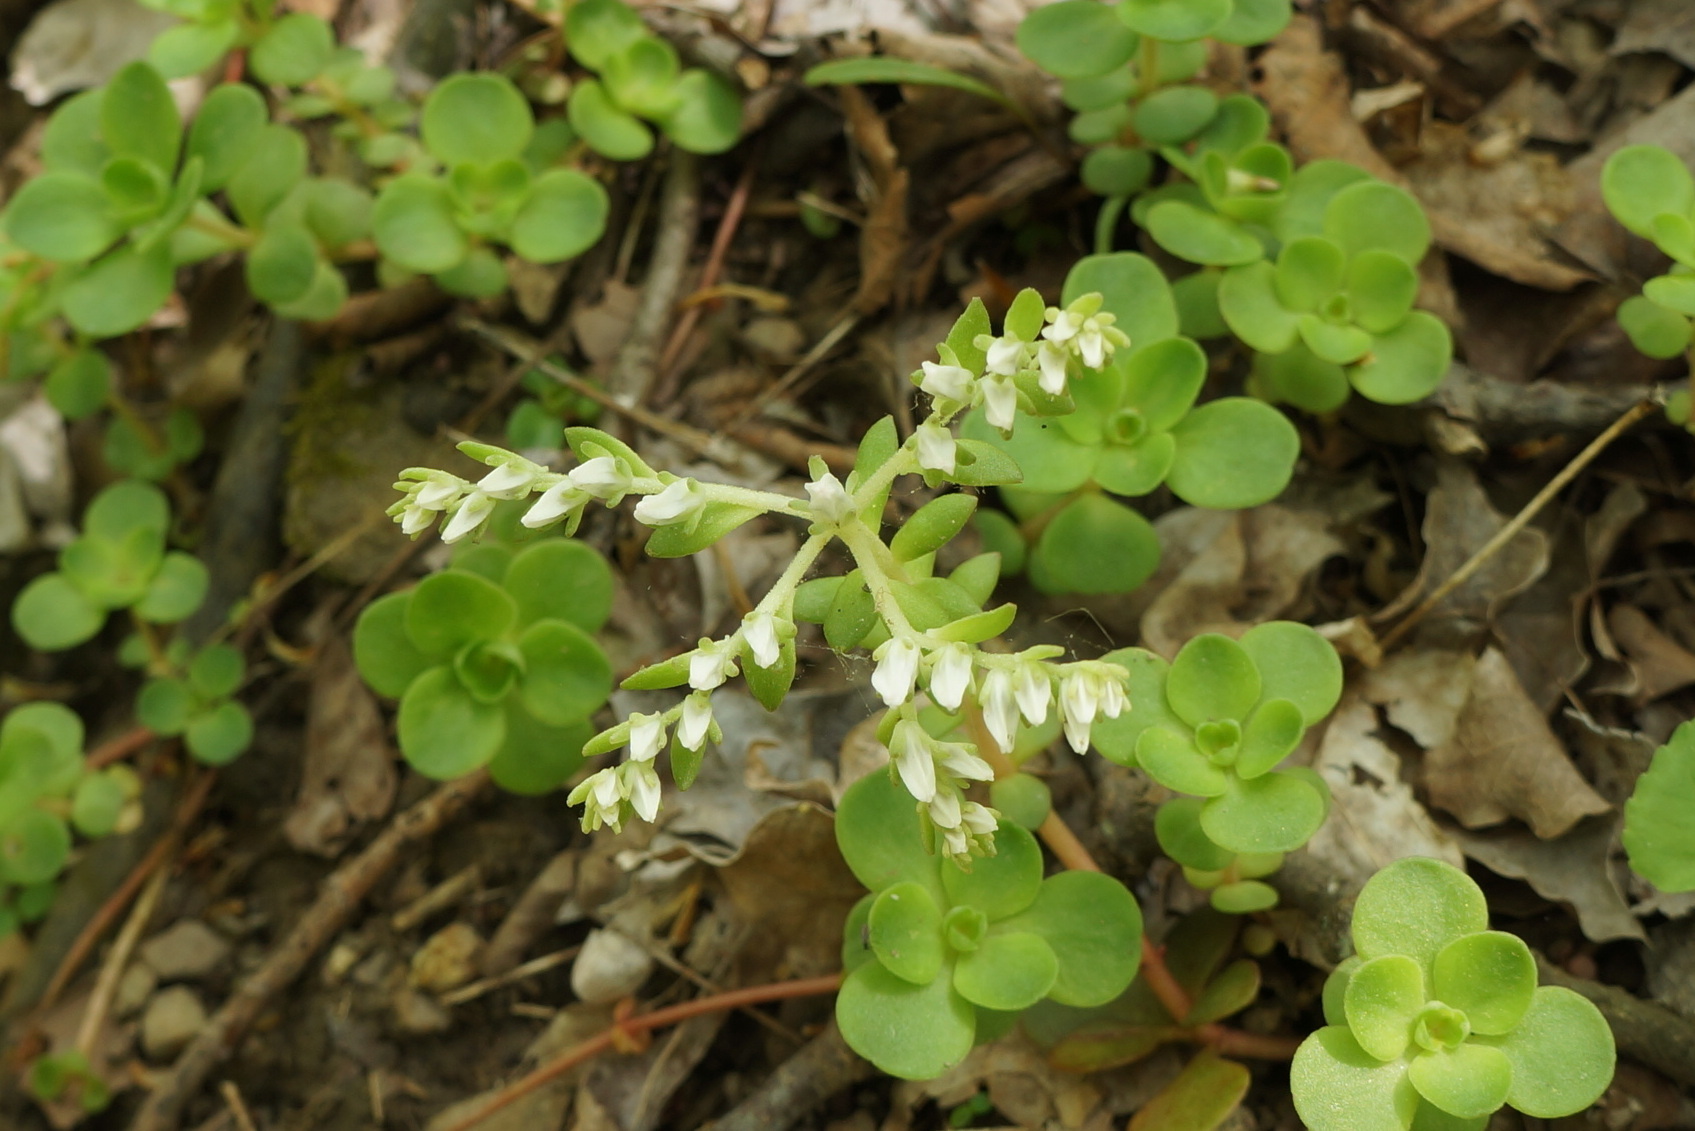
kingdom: Plantae
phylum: Tracheophyta
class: Magnoliopsida
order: Saxifragales
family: Crassulaceae
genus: Sedum
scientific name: Sedum ternatum
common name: Wild stonecrop
